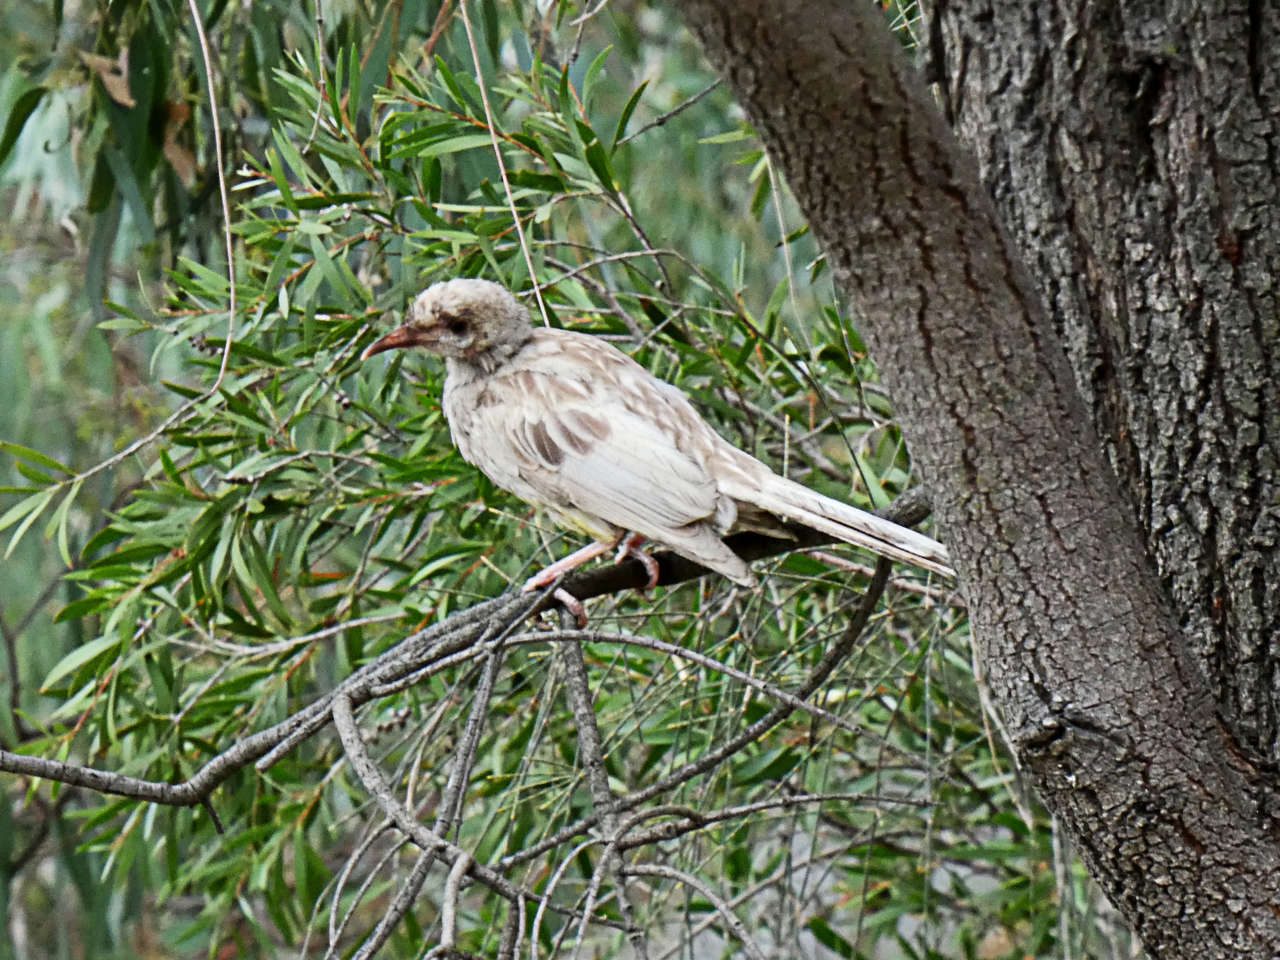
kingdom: Animalia
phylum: Chordata
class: Aves
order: Passeriformes
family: Meliphagidae
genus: Anthochaera
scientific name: Anthochaera carunculata
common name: Red wattlebird
